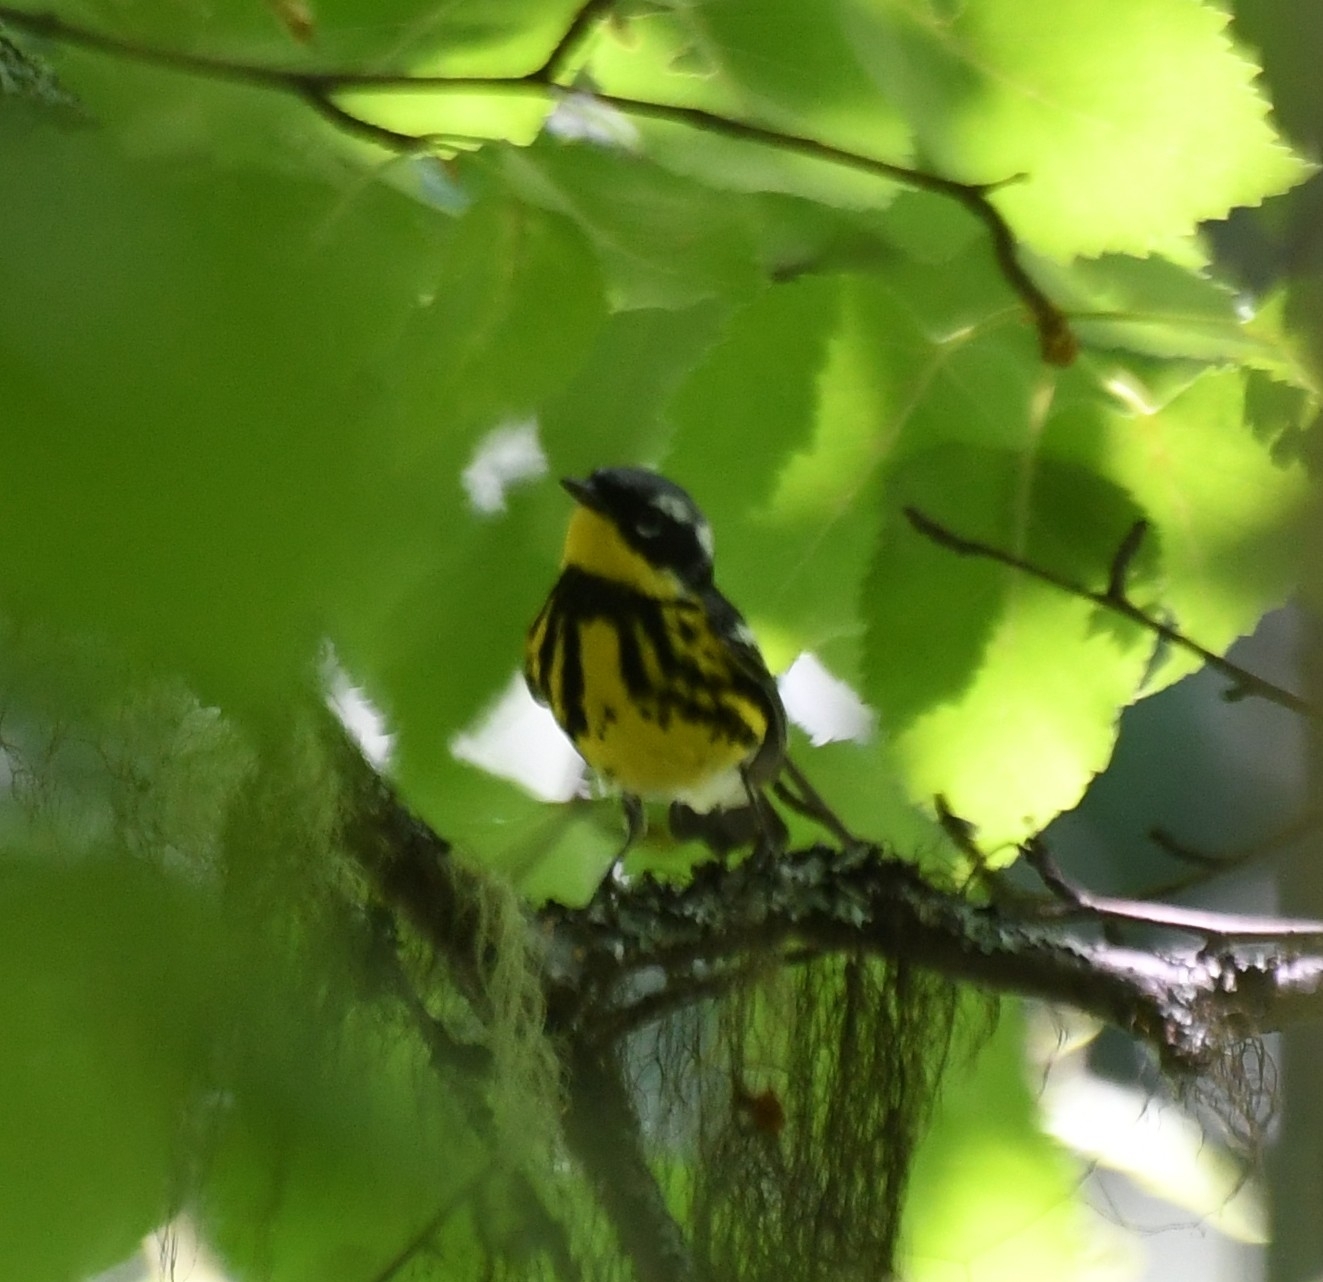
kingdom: Animalia
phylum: Chordata
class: Aves
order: Passeriformes
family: Parulidae
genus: Setophaga
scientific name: Setophaga magnolia
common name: Magnolia warbler
